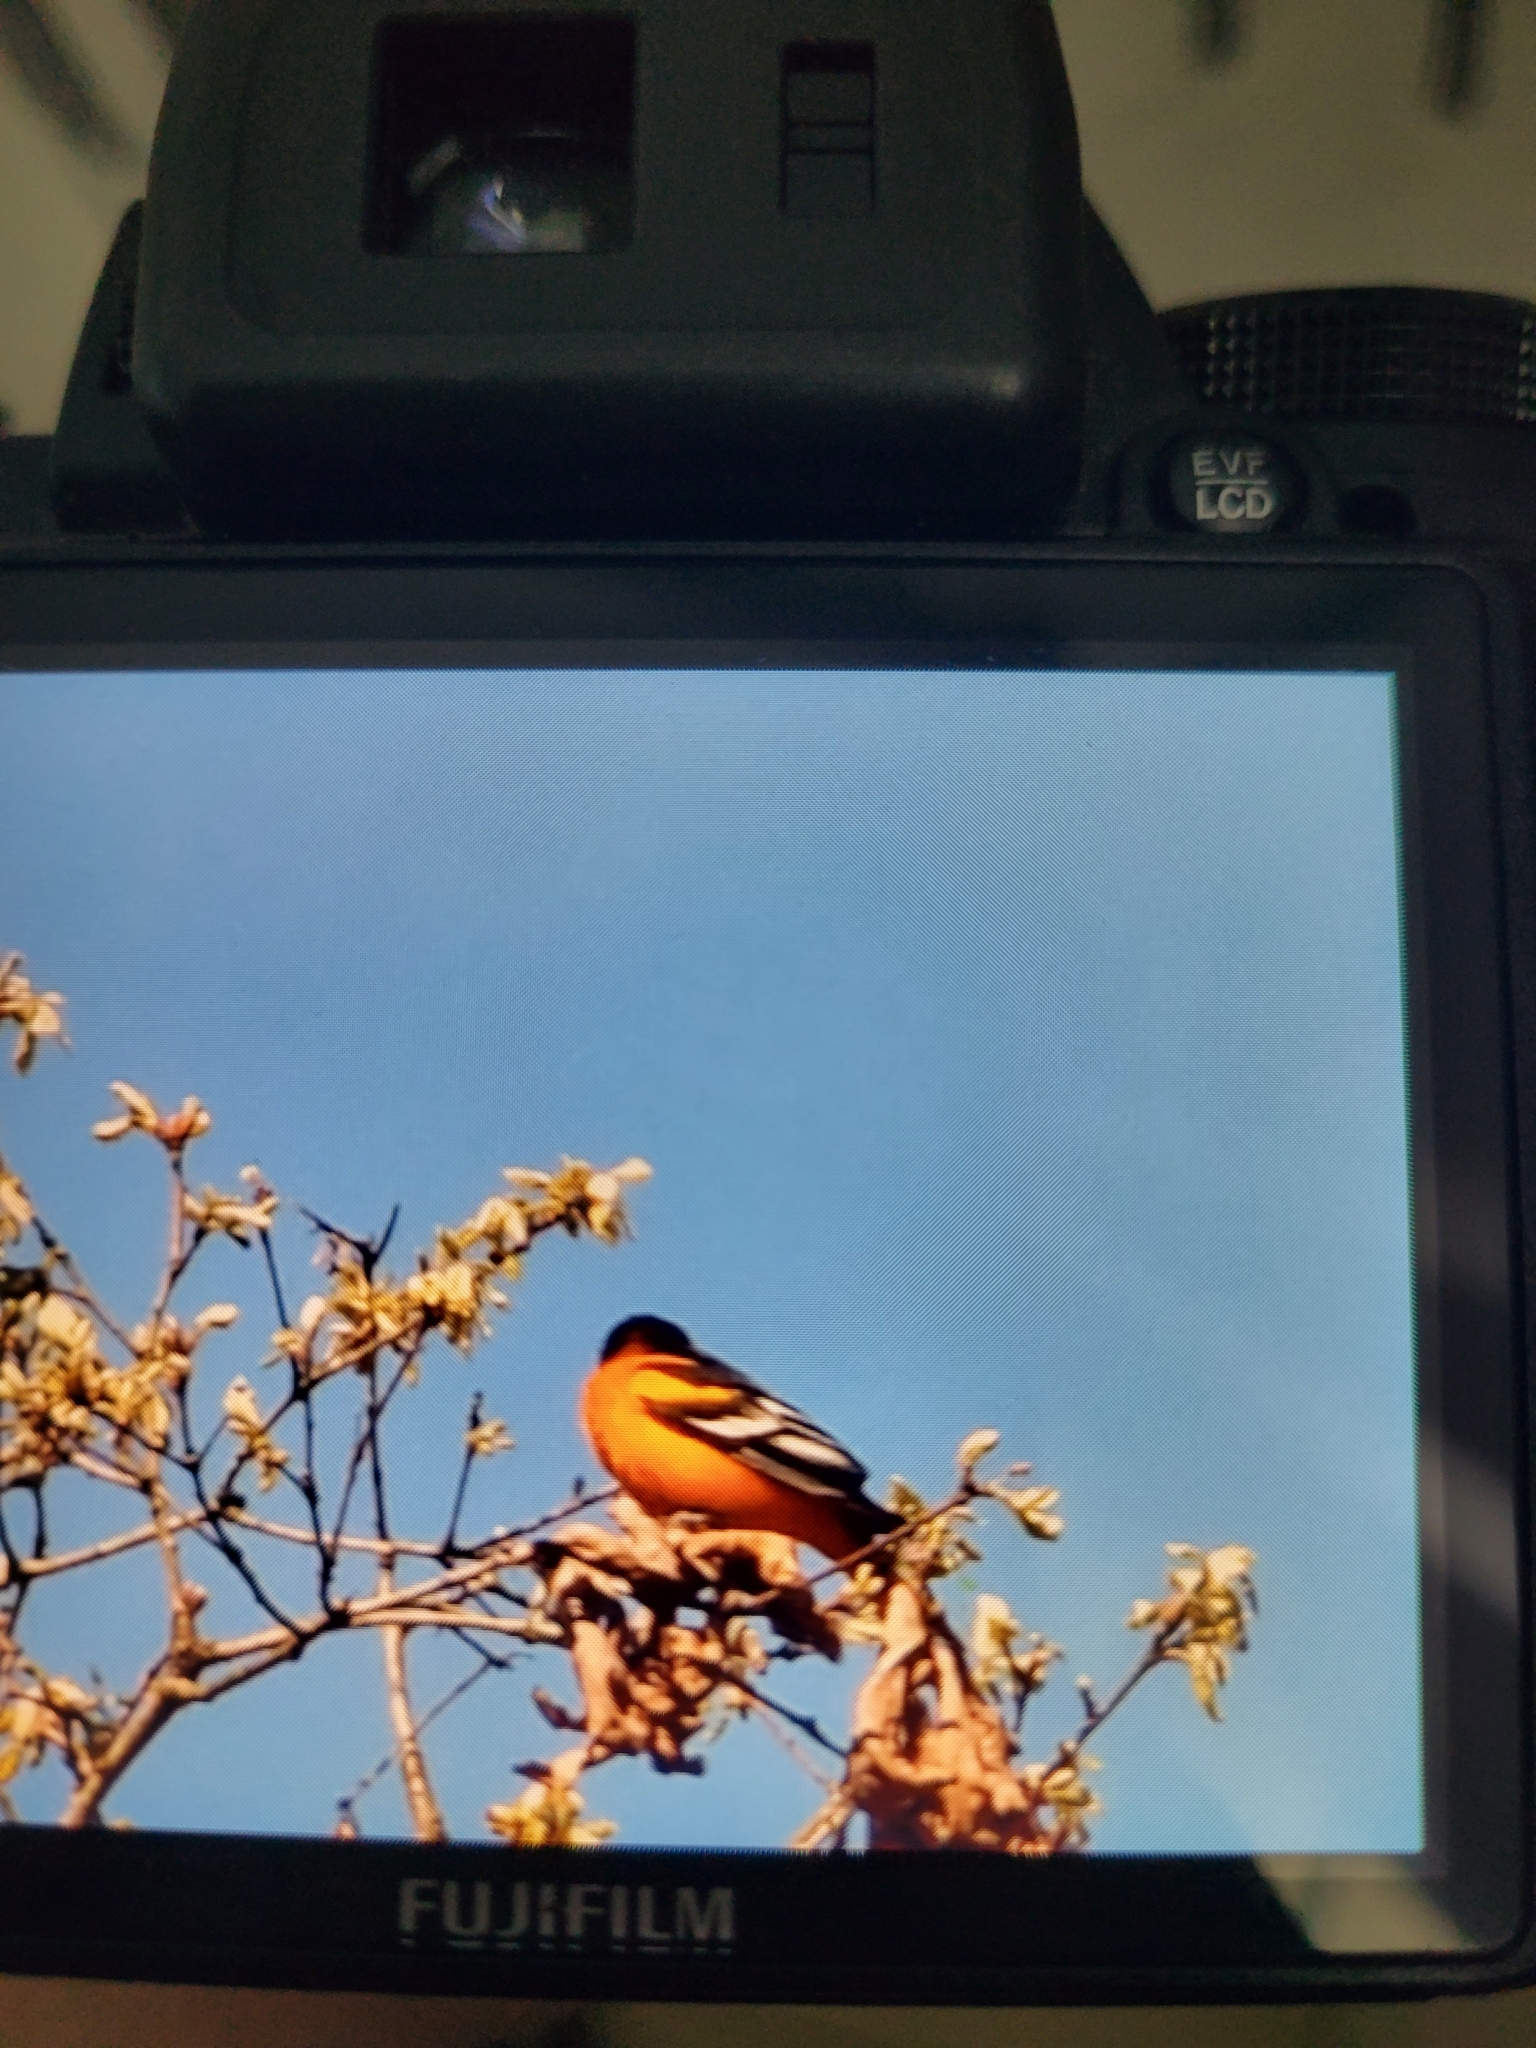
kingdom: Animalia
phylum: Chordata
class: Aves
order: Passeriformes
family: Icteridae
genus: Icterus
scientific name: Icterus galbula
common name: Baltimore oriole
